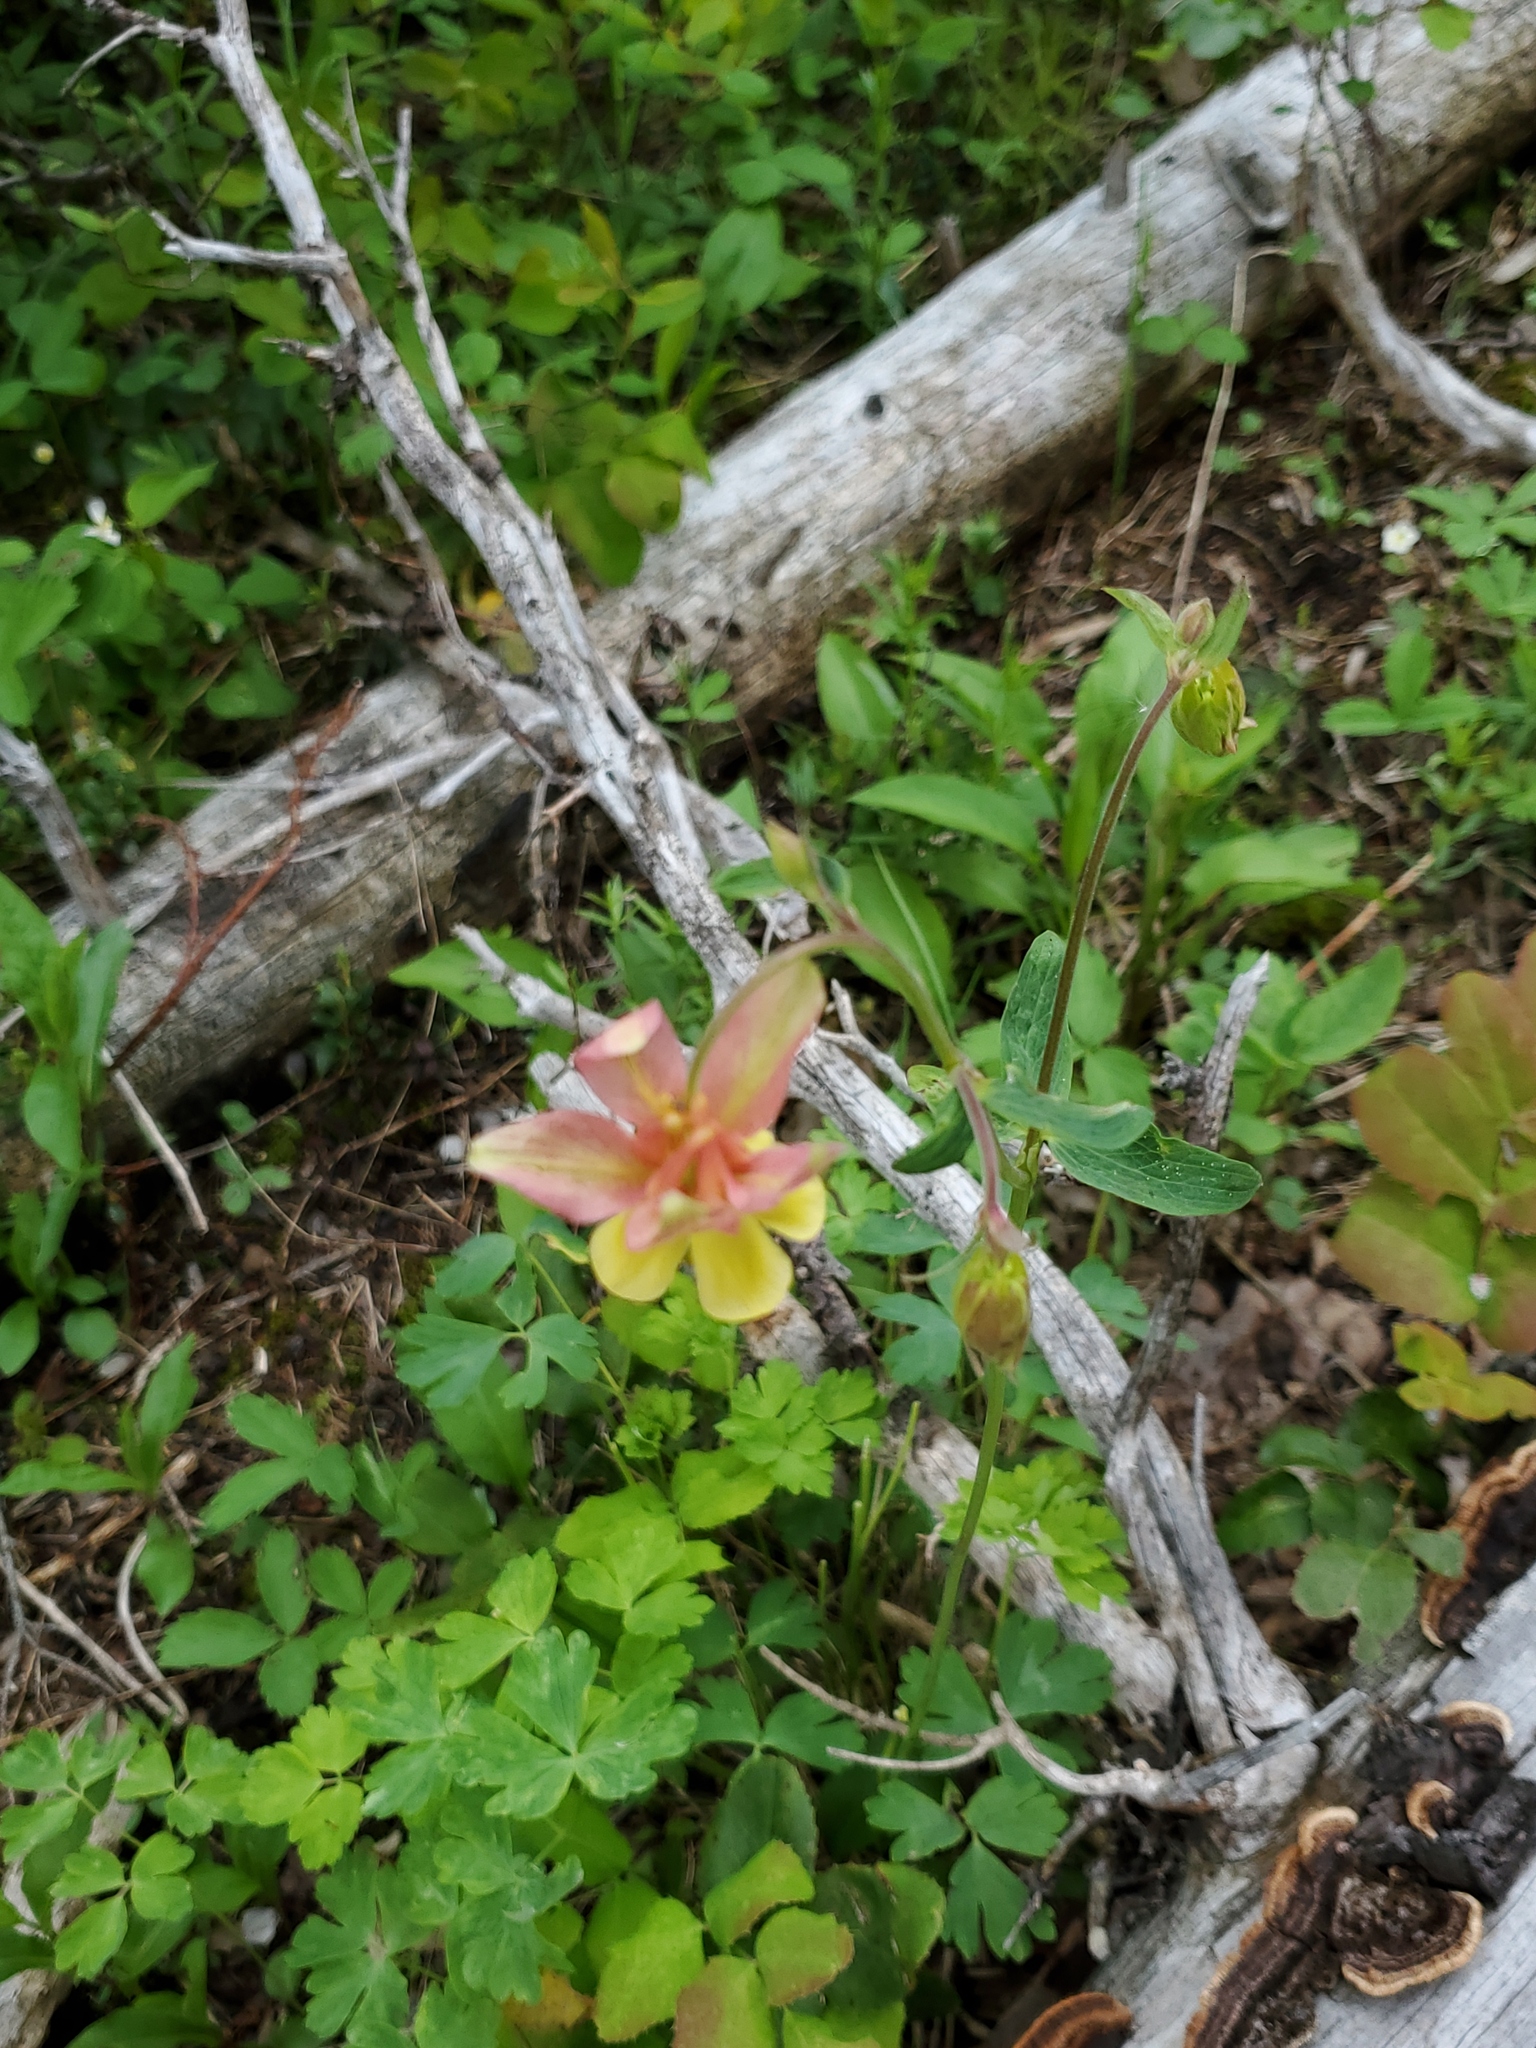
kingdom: Plantae
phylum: Tracheophyta
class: Magnoliopsida
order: Ranunculales
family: Ranunculaceae
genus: Aquilegia
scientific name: Aquilegia flavescens
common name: Yellow columbine
